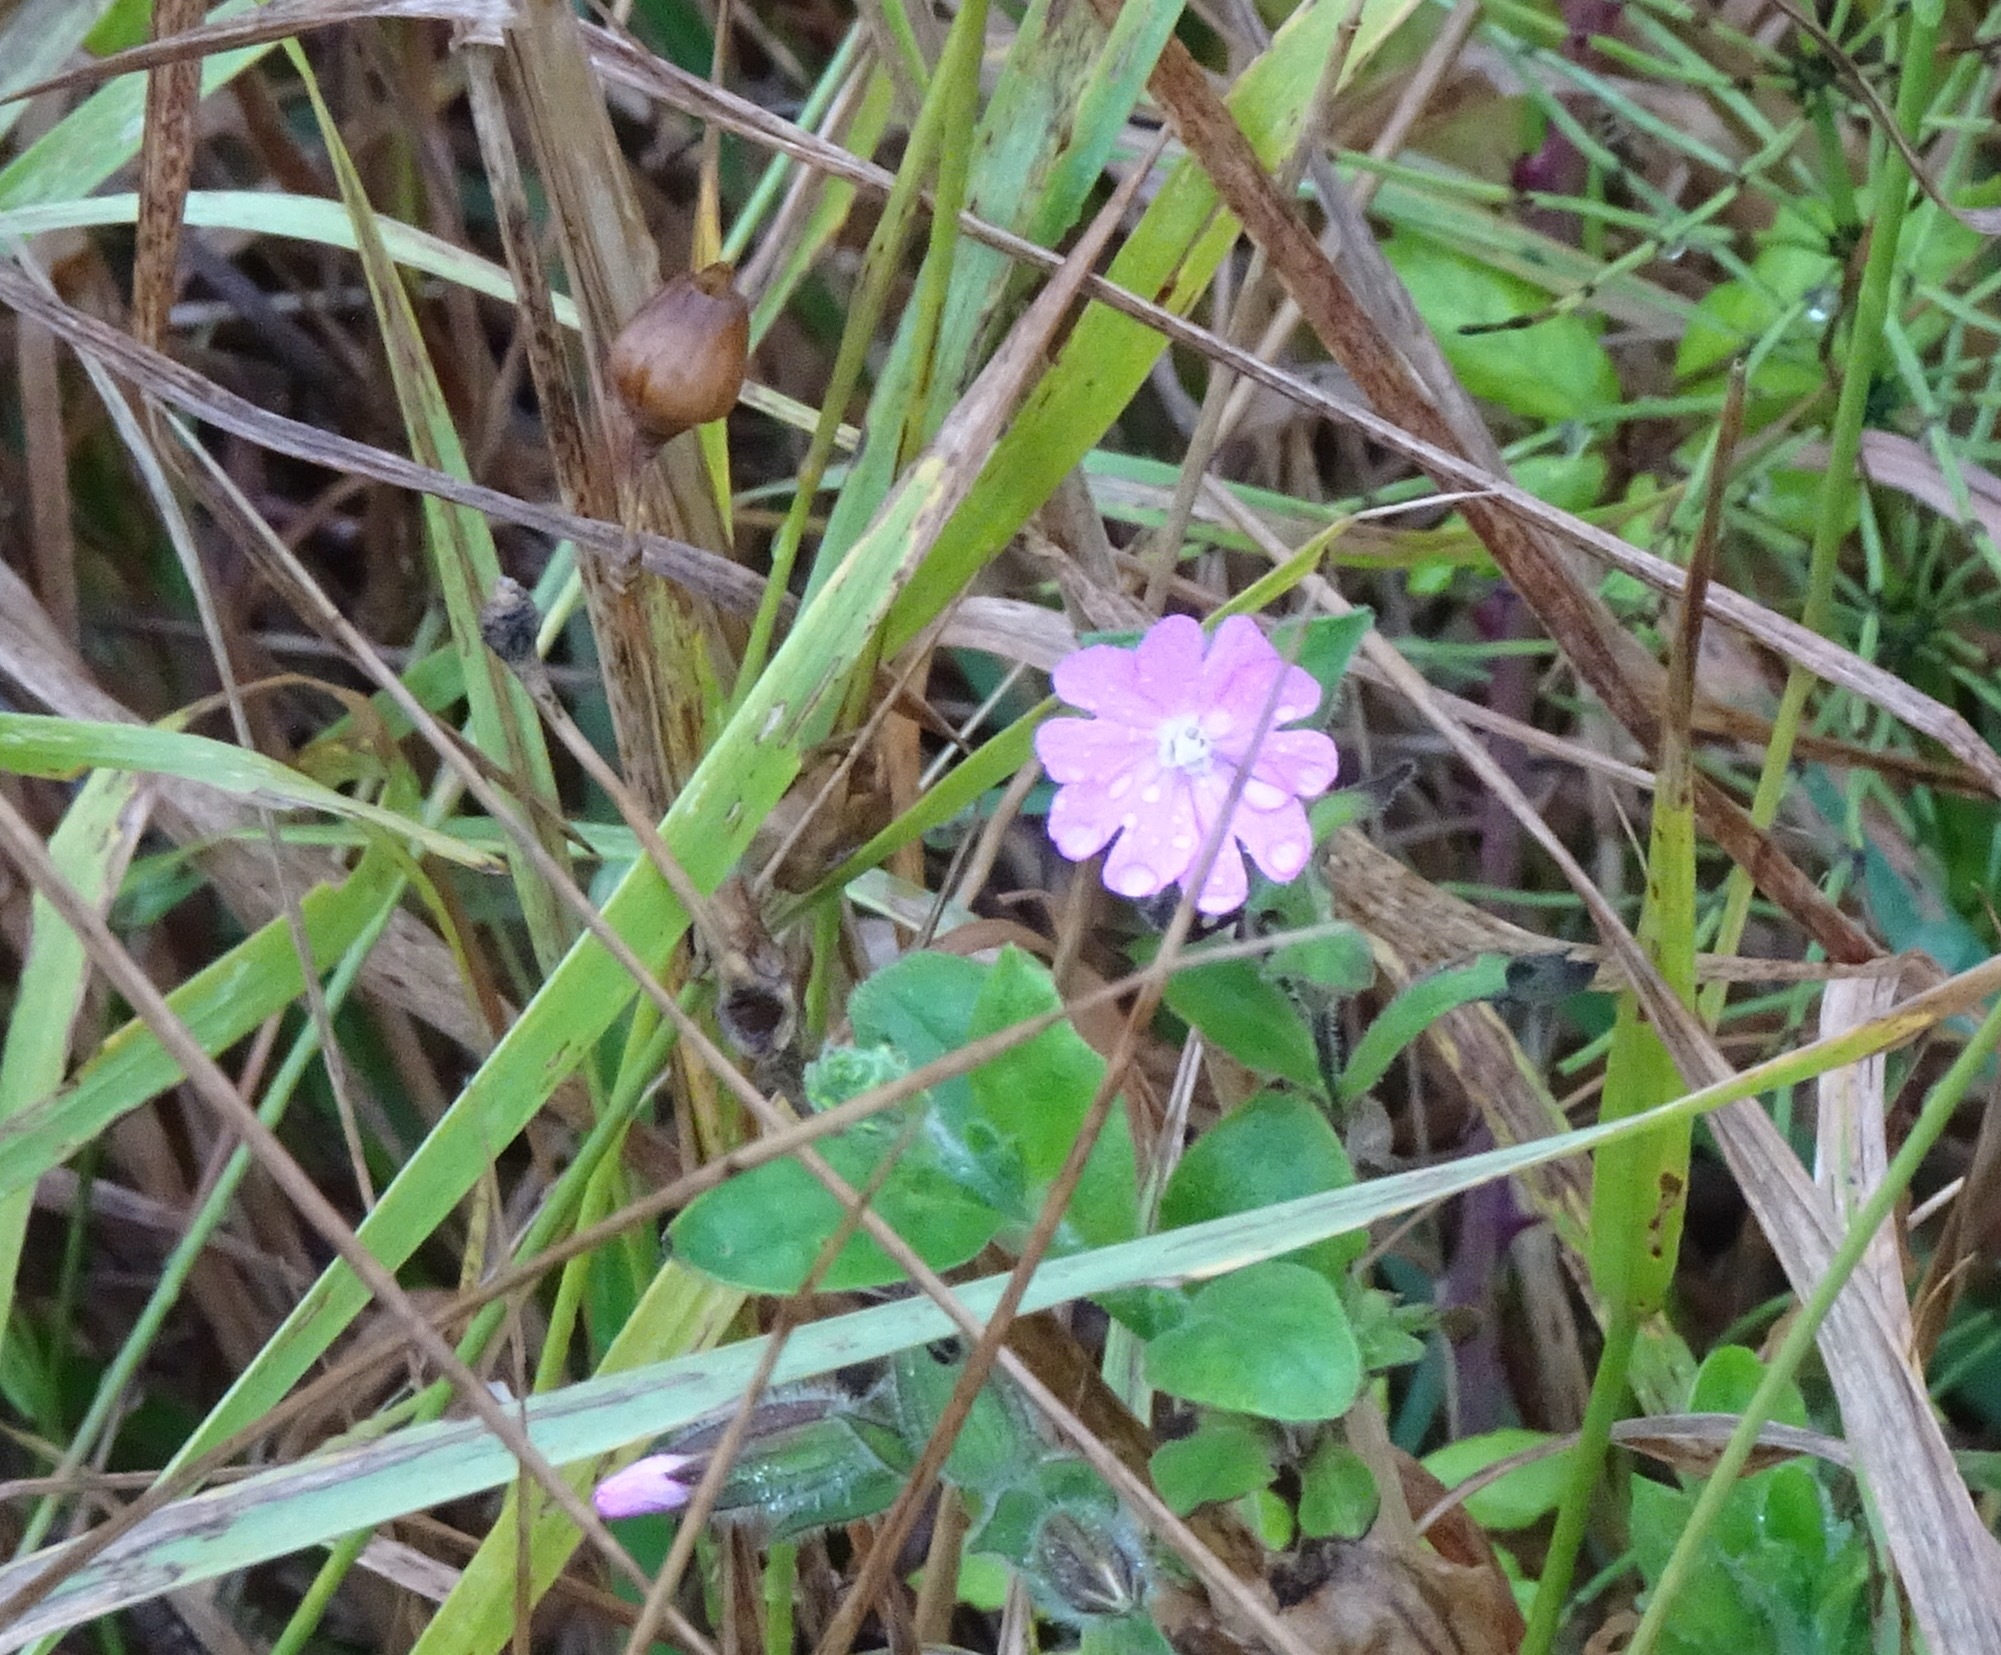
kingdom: Plantae
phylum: Tracheophyta
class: Magnoliopsida
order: Caryophyllales
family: Caryophyllaceae
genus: Silene
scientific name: Silene dioica
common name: Red campion
